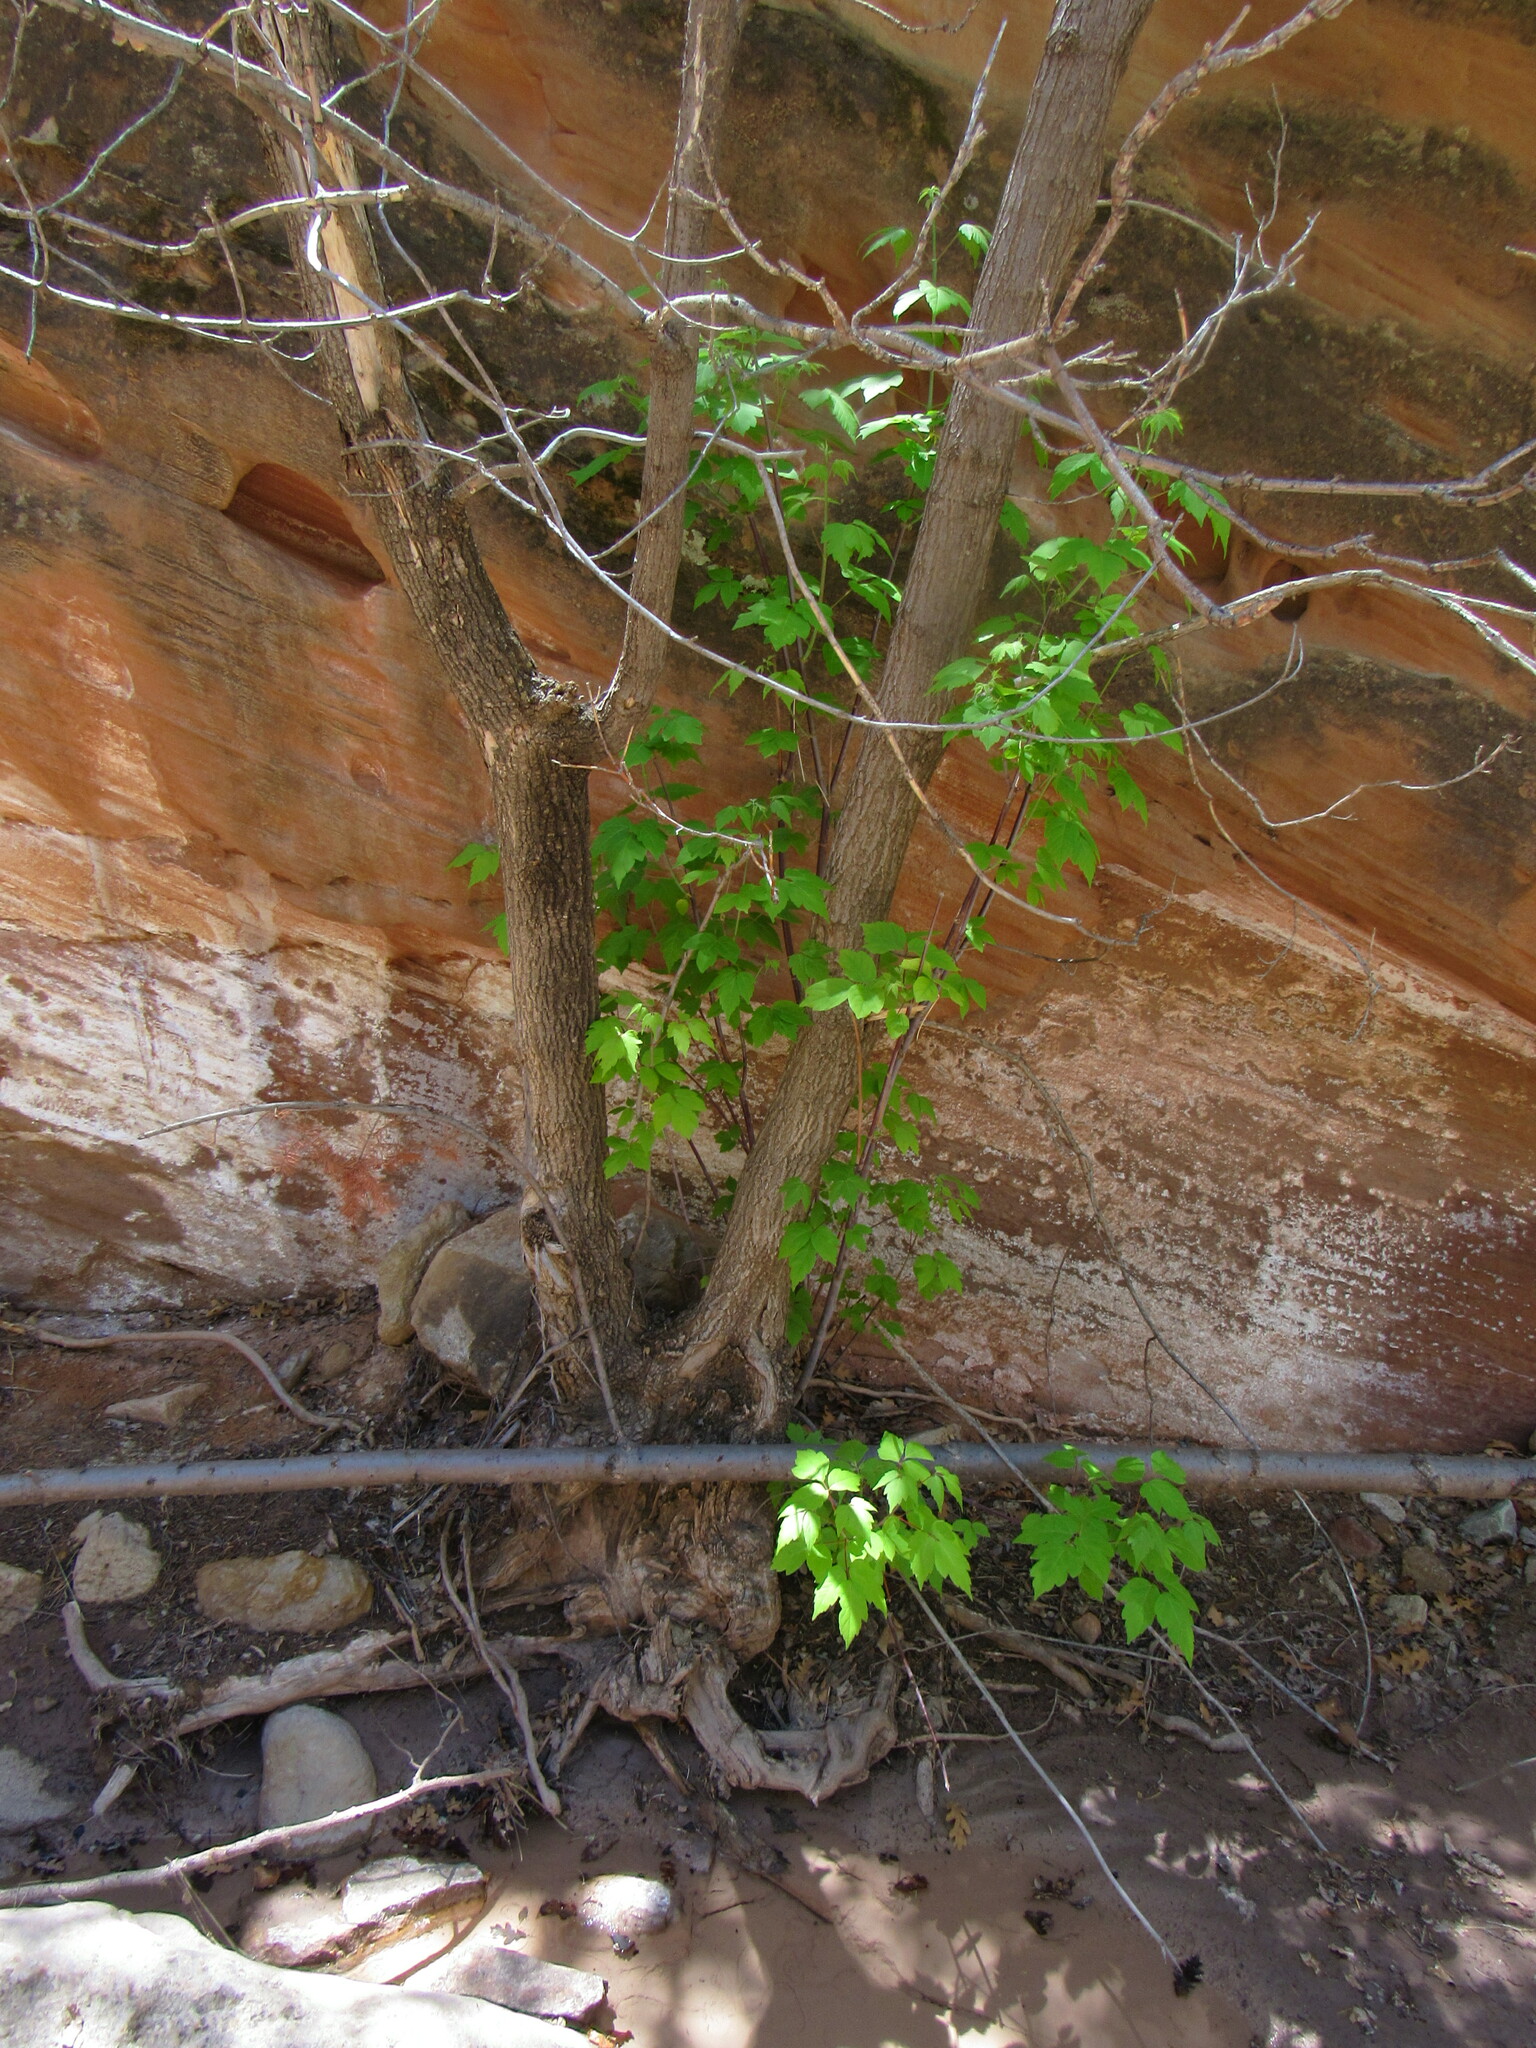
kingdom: Plantae
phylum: Tracheophyta
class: Magnoliopsida
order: Sapindales
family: Sapindaceae
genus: Acer
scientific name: Acer negundo
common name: Ashleaf maple
